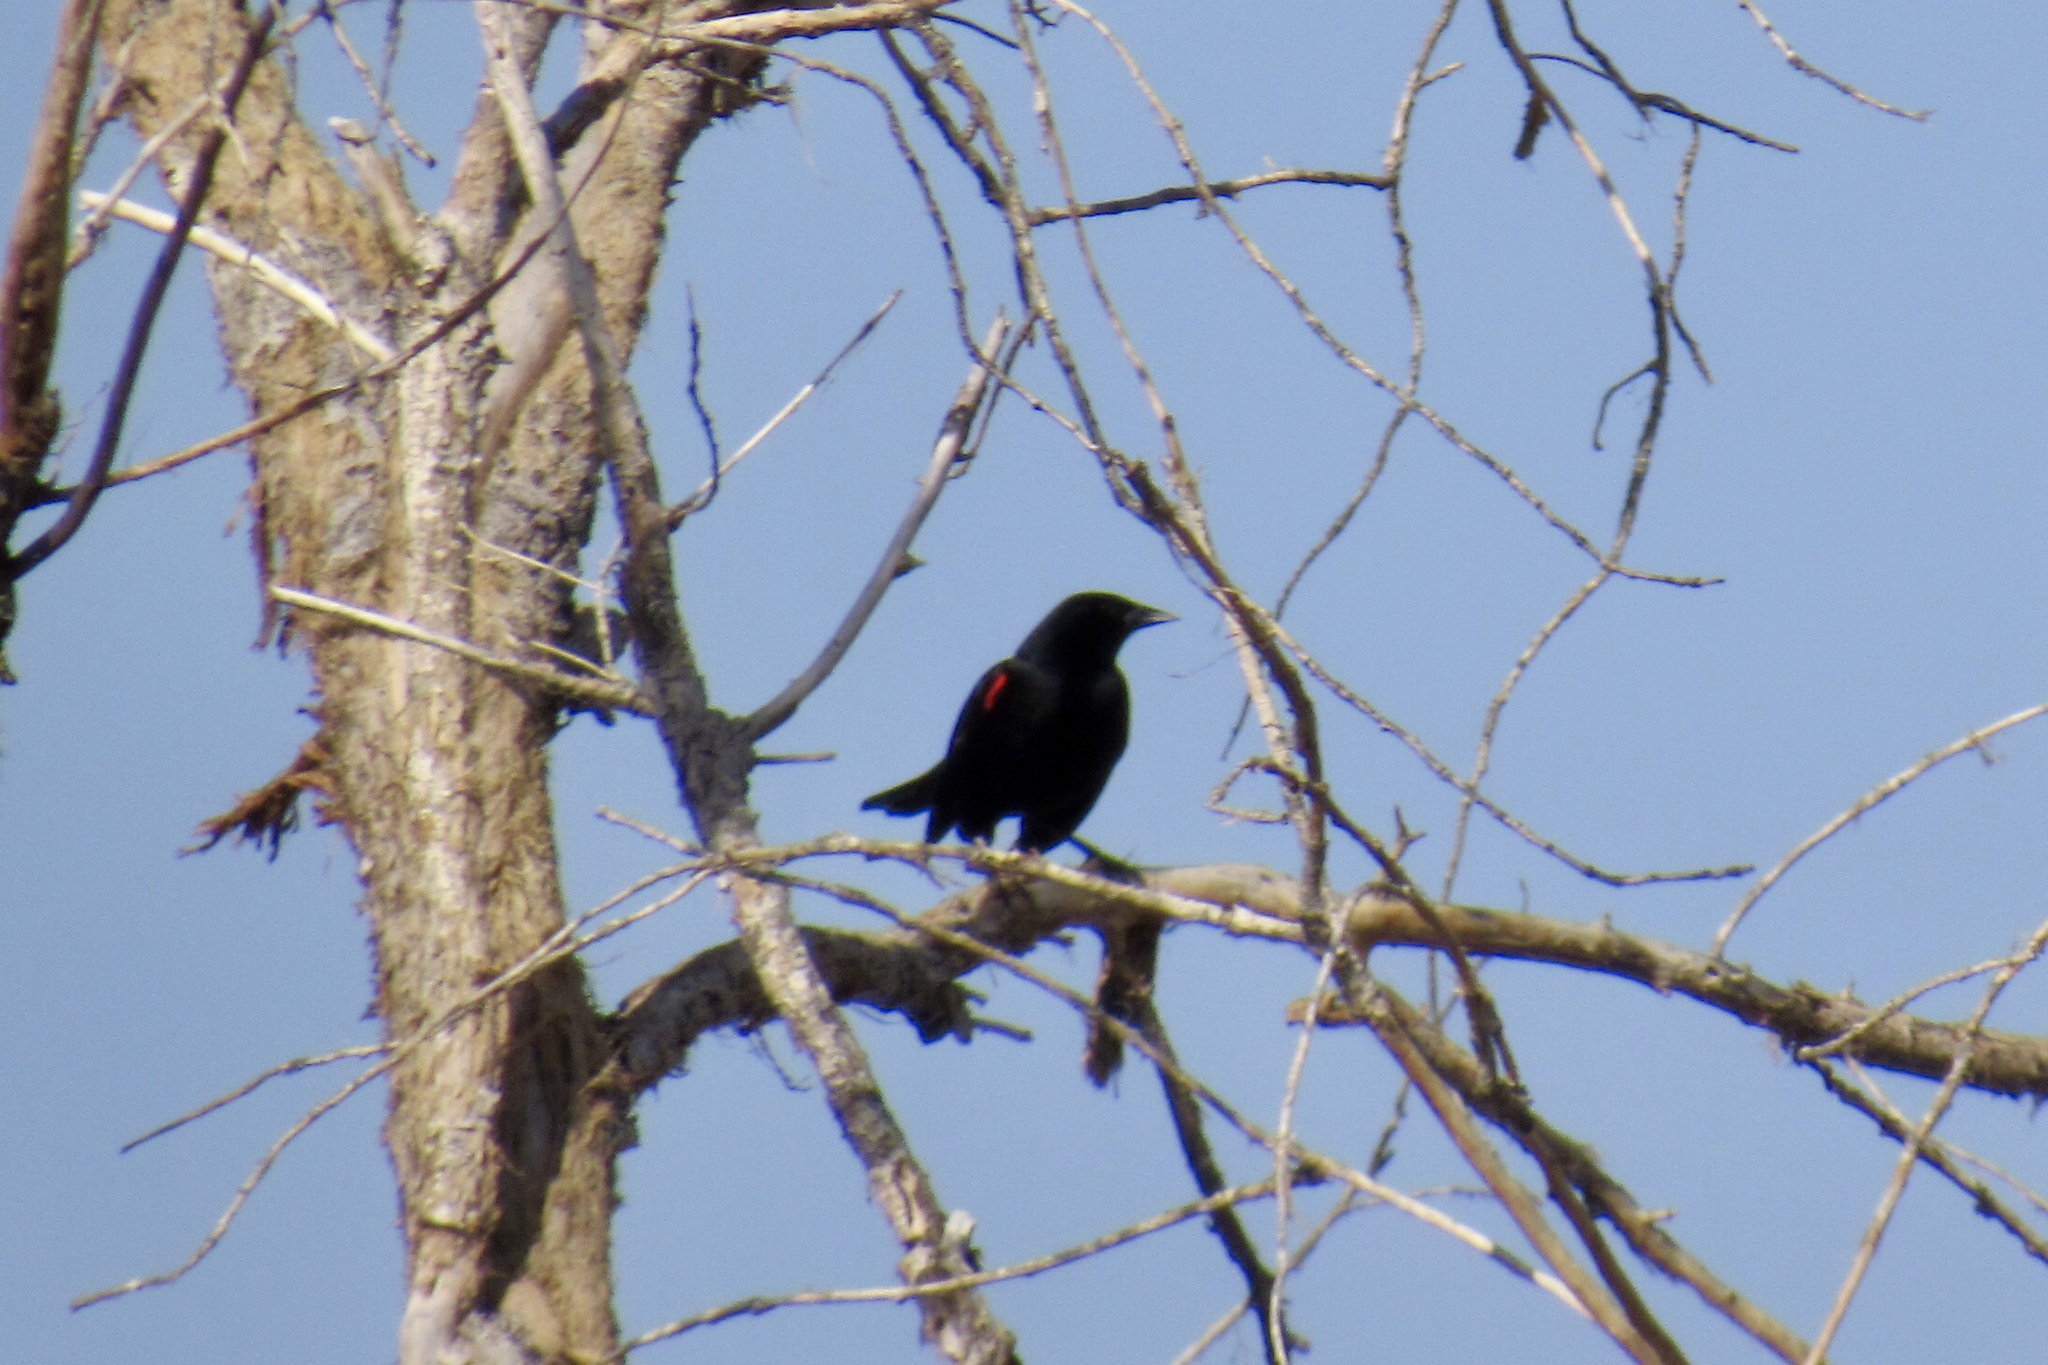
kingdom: Animalia
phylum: Chordata
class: Aves
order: Passeriformes
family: Icteridae
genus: Agelaius
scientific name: Agelaius phoeniceus
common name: Red-winged blackbird
